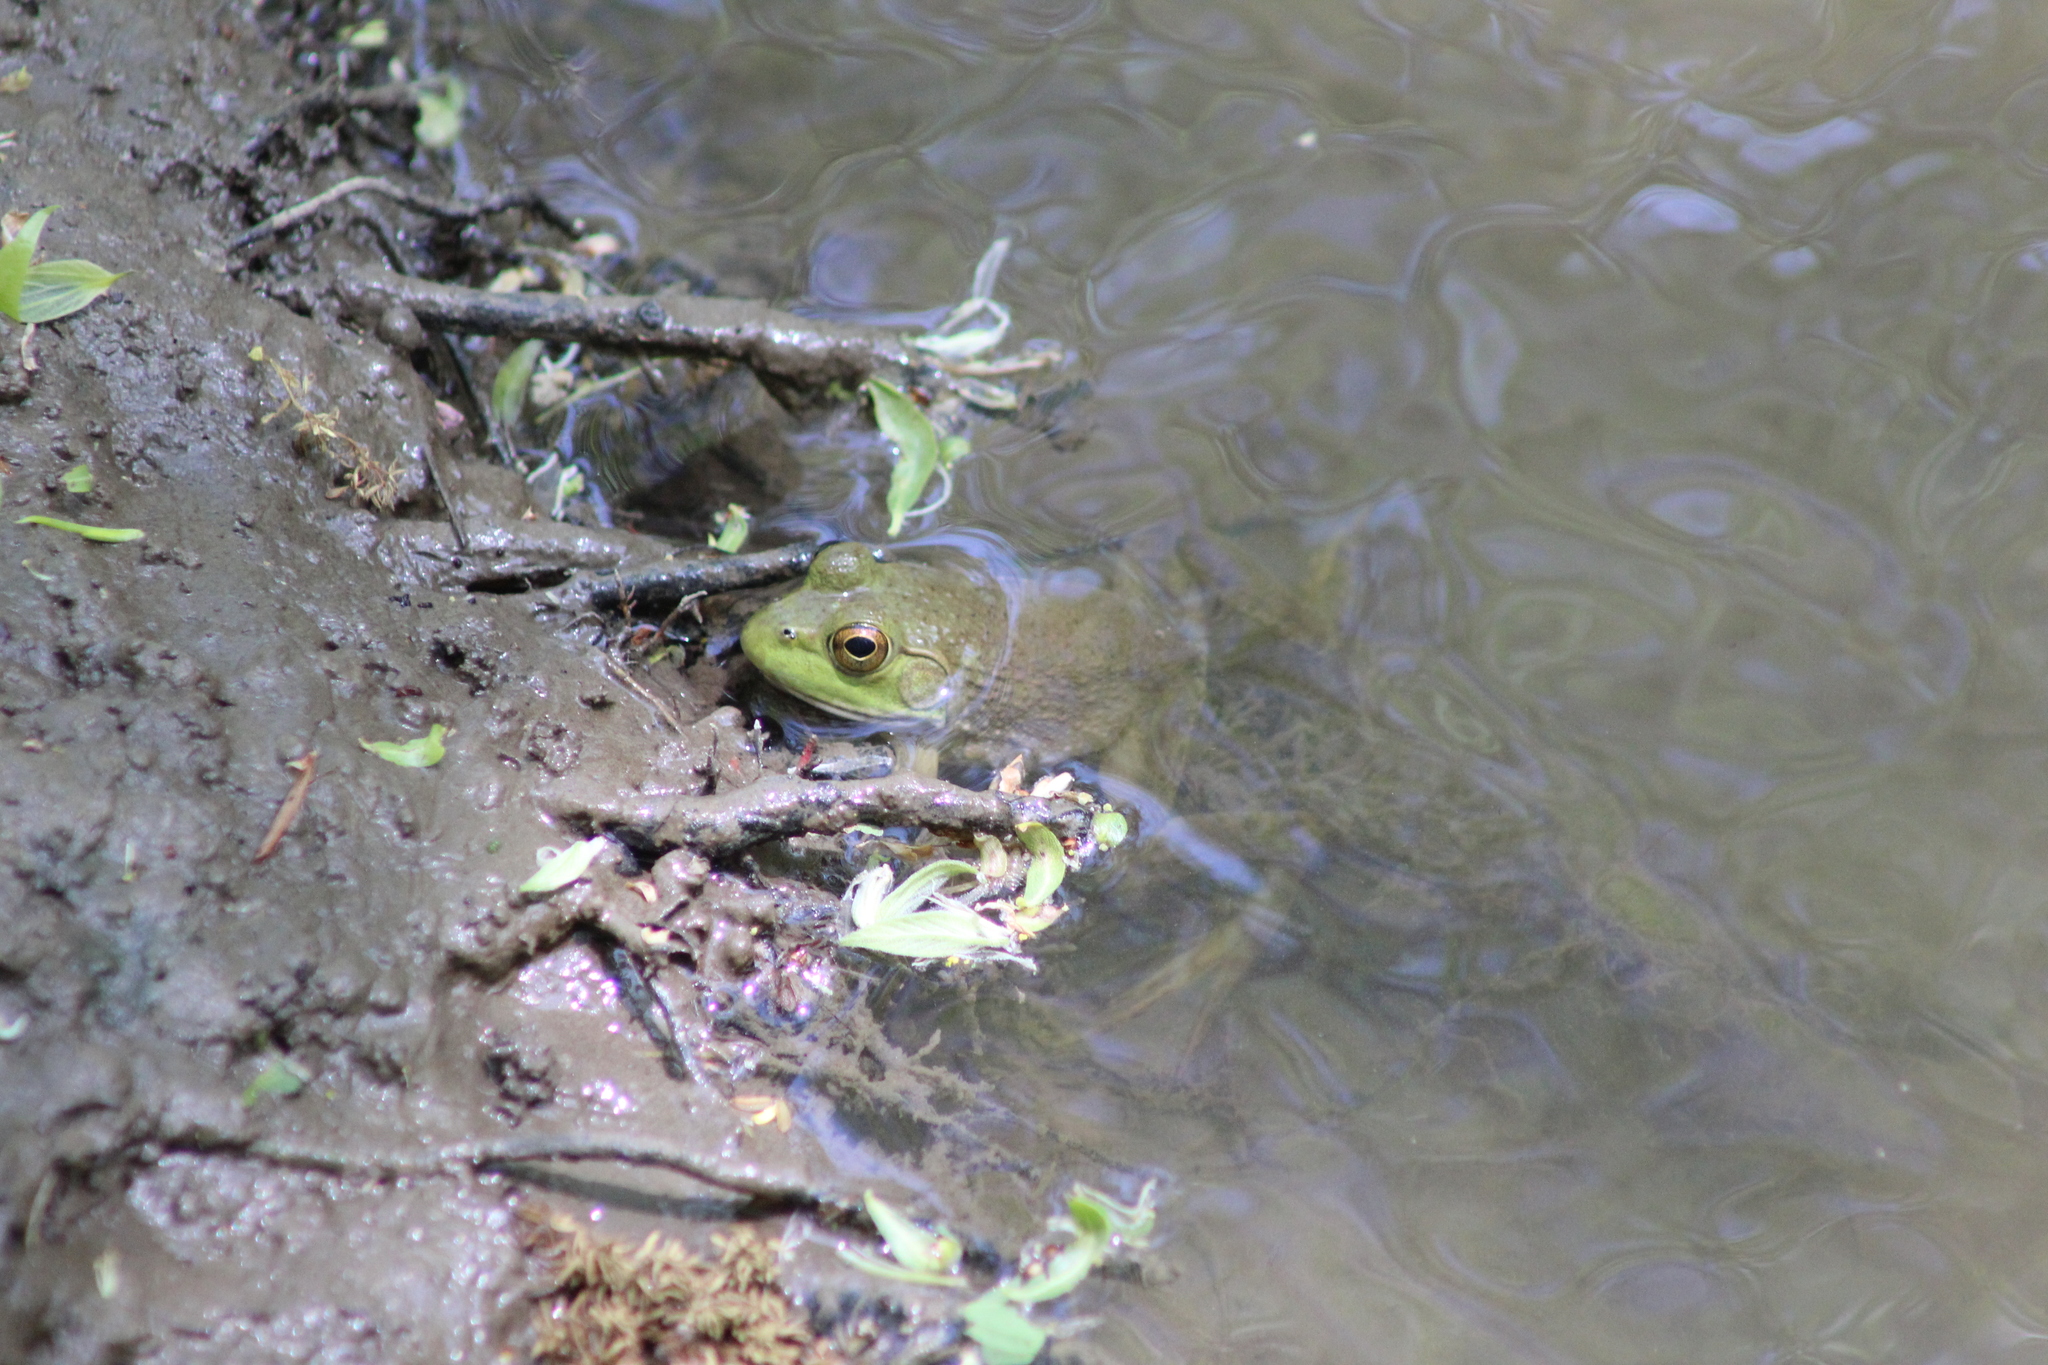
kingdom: Animalia
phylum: Chordata
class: Amphibia
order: Anura
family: Ranidae
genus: Lithobates
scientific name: Lithobates catesbeianus
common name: American bullfrog
